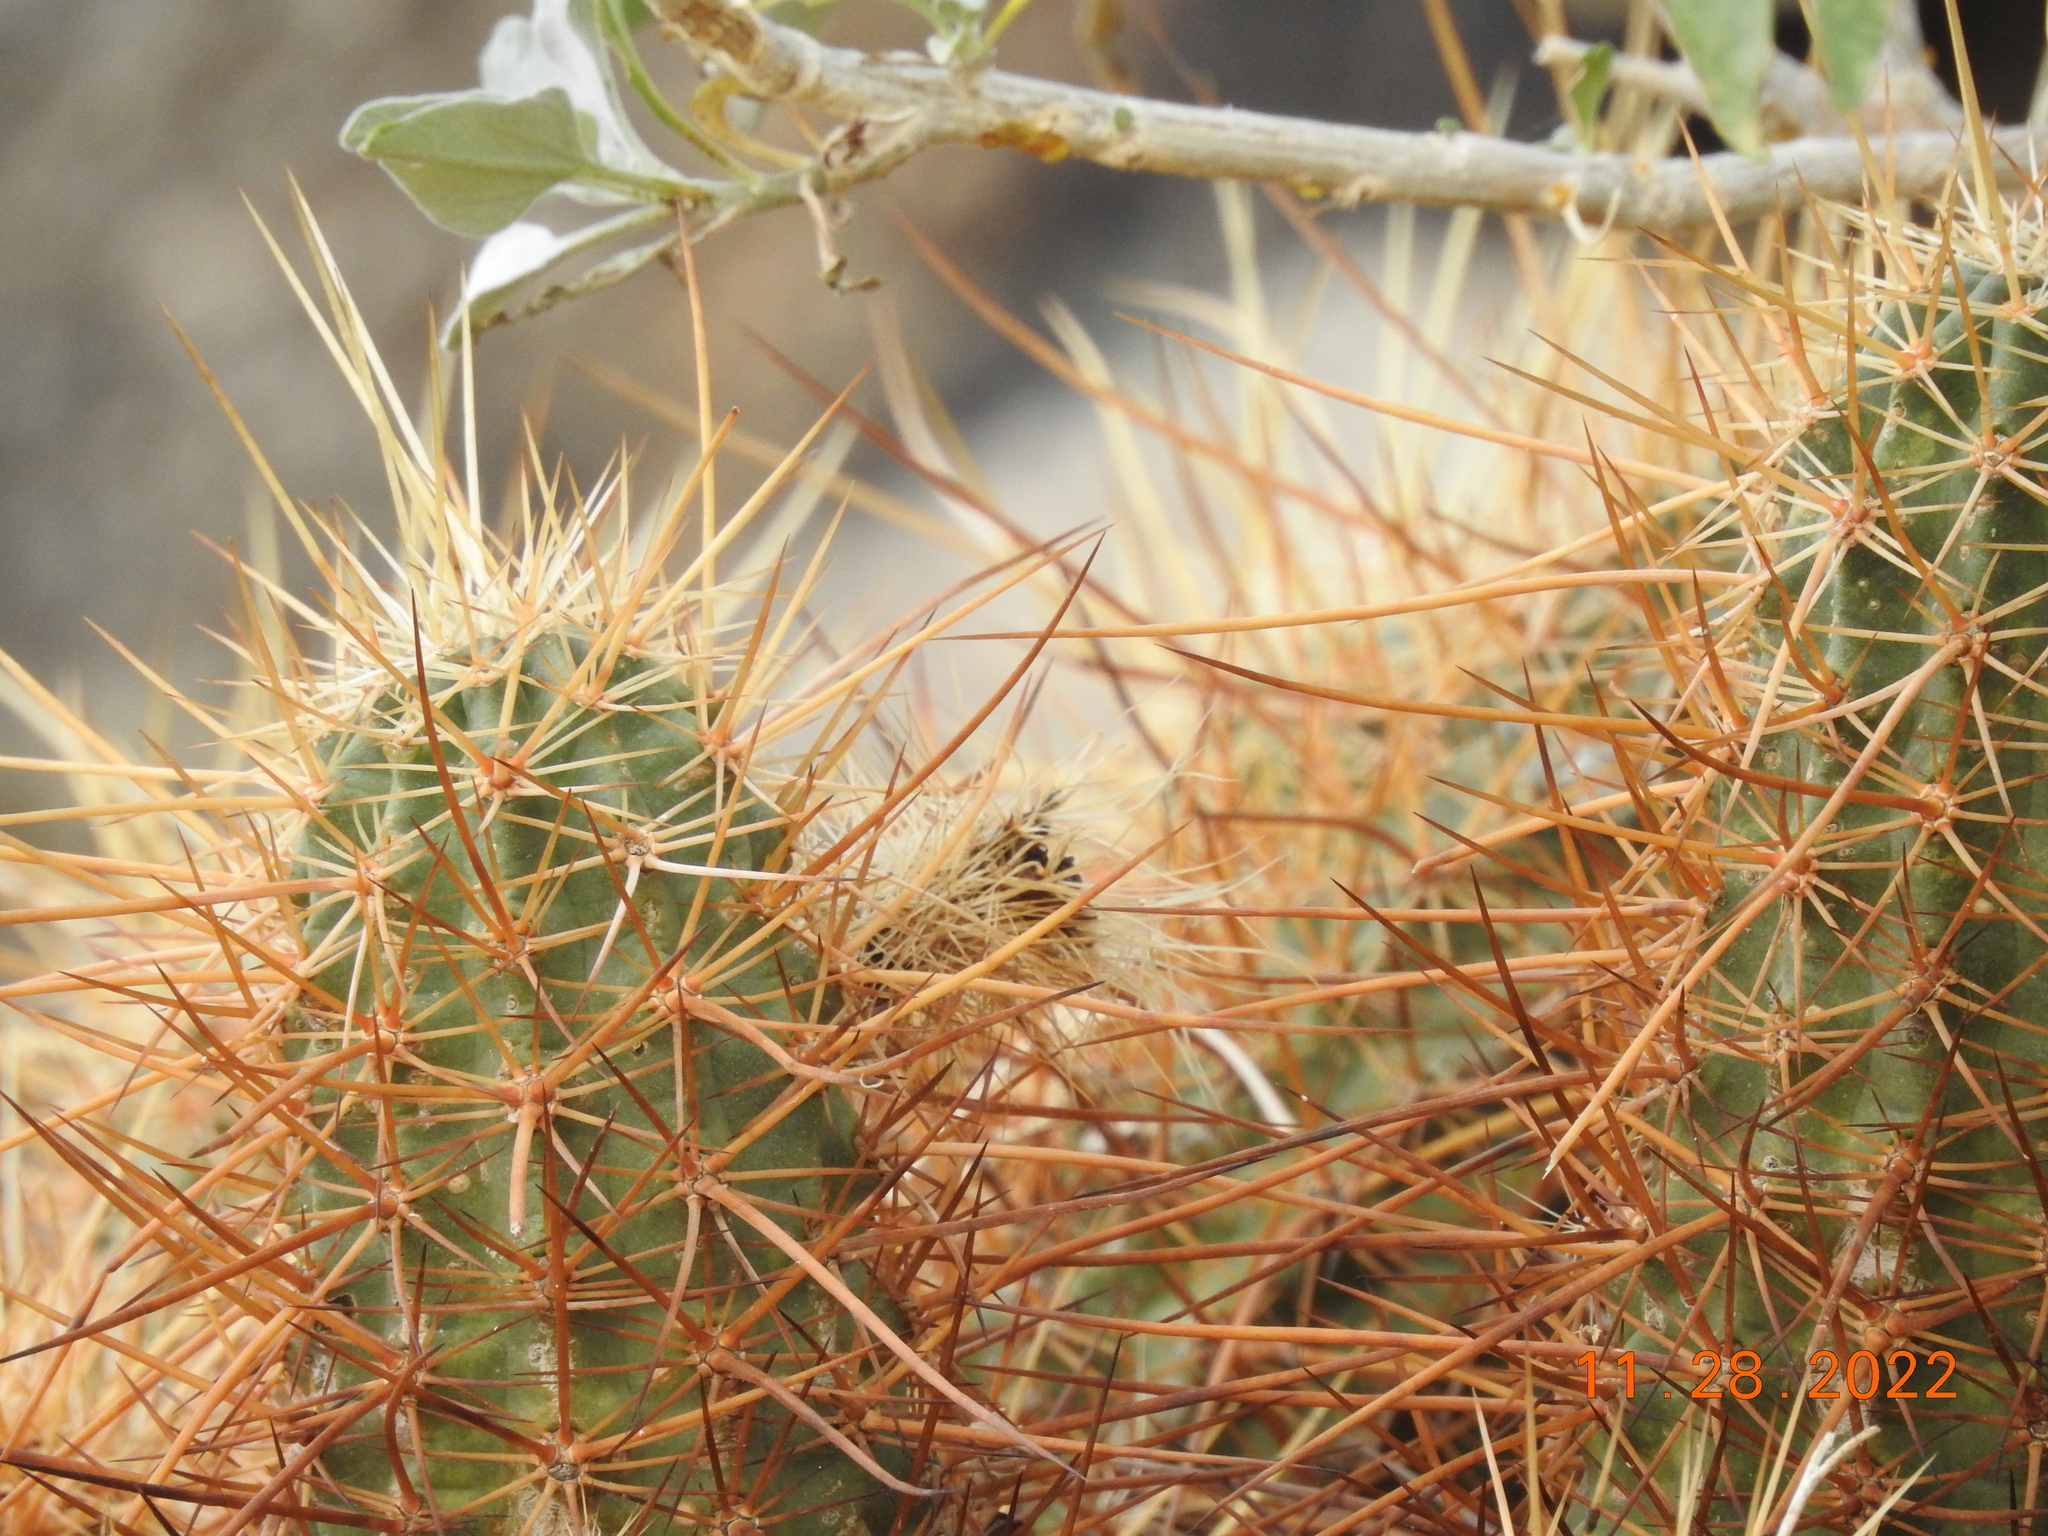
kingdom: Plantae
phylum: Tracheophyta
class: Magnoliopsida
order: Caryophyllales
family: Cactaceae
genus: Echinocereus
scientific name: Echinocereus engelmannii
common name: Engelmann's hedgehog cactus
